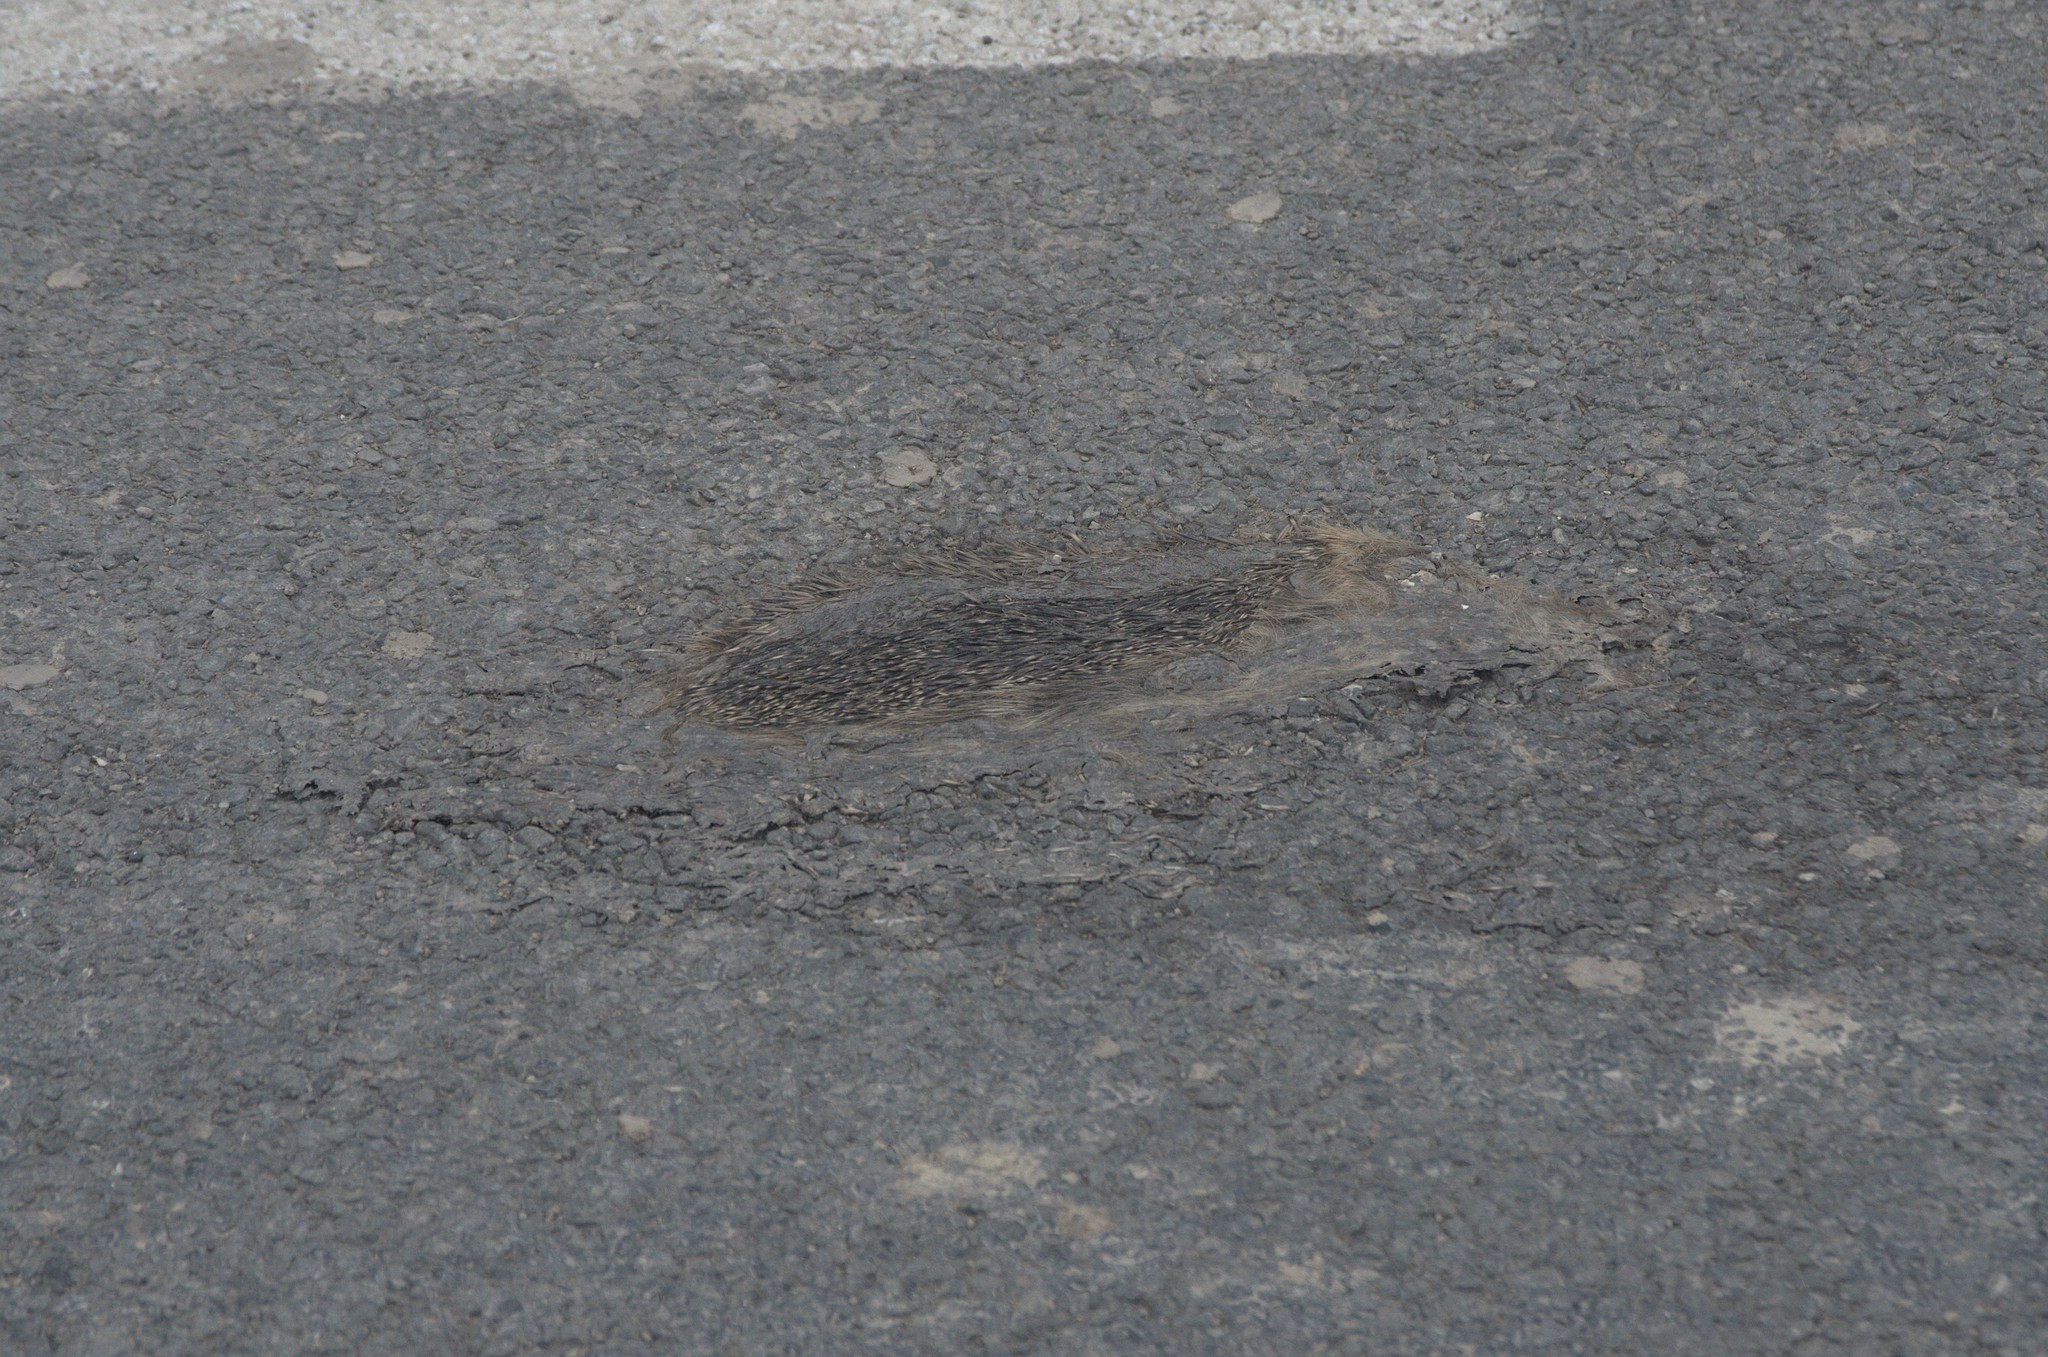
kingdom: Animalia
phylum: Chordata
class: Mammalia
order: Erinaceomorpha
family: Erinaceidae
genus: Erinaceus
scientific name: Erinaceus europaeus
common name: West european hedgehog
